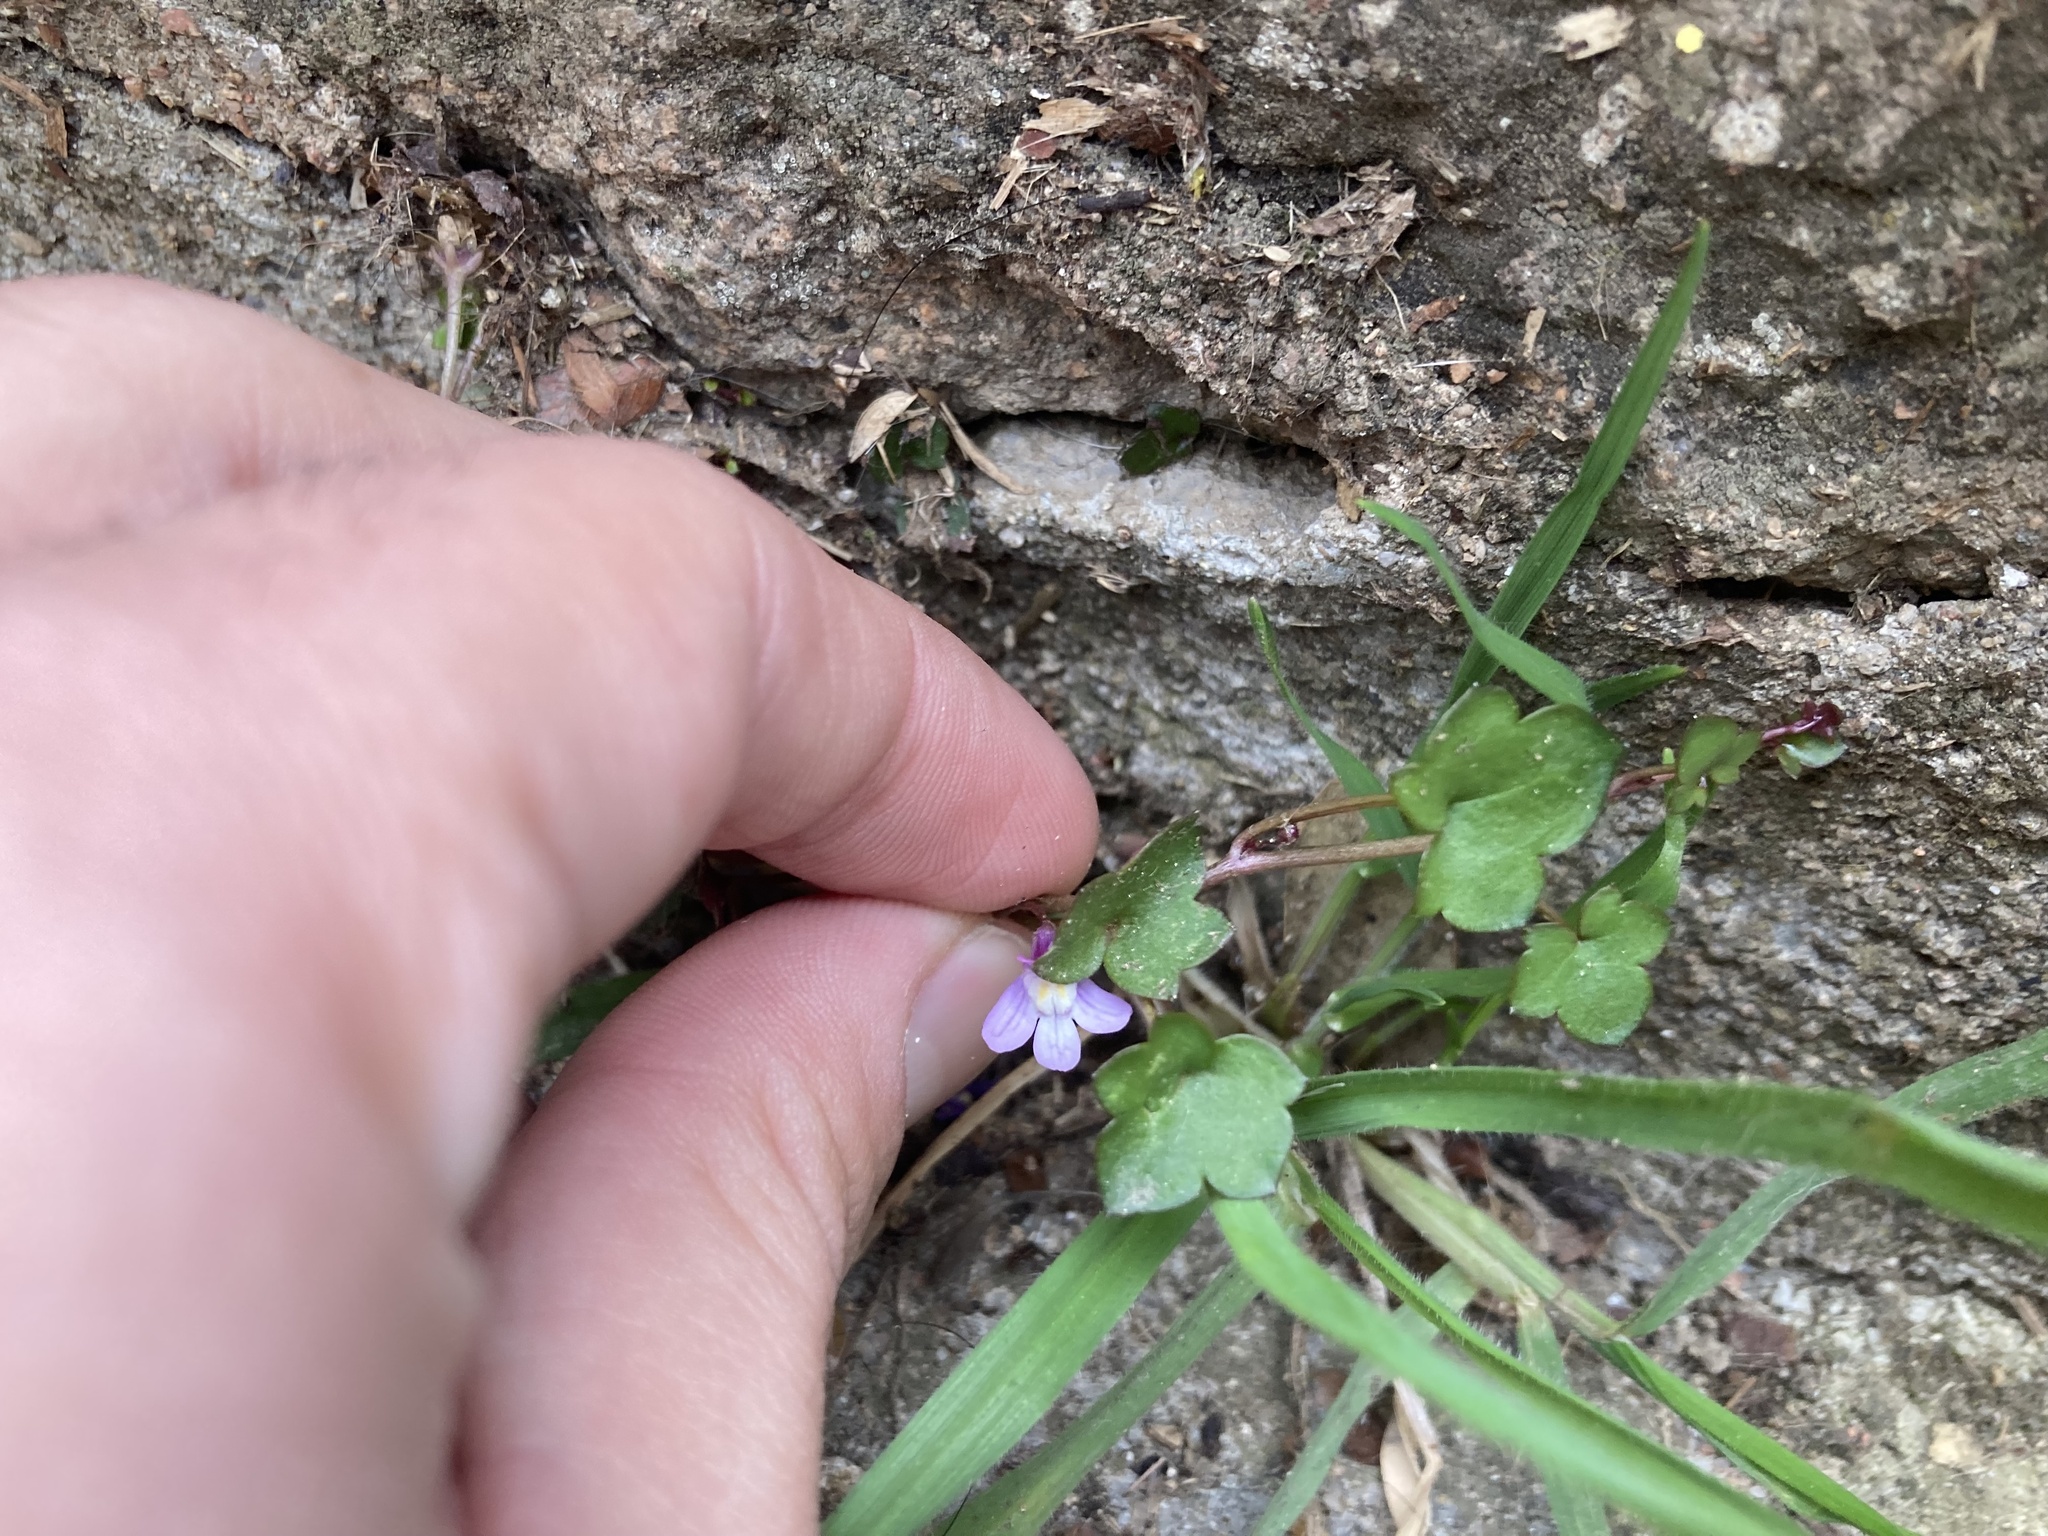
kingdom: Plantae
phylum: Tracheophyta
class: Magnoliopsida
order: Lamiales
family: Plantaginaceae
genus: Cymbalaria
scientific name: Cymbalaria muralis
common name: Ivy-leaved toadflax
